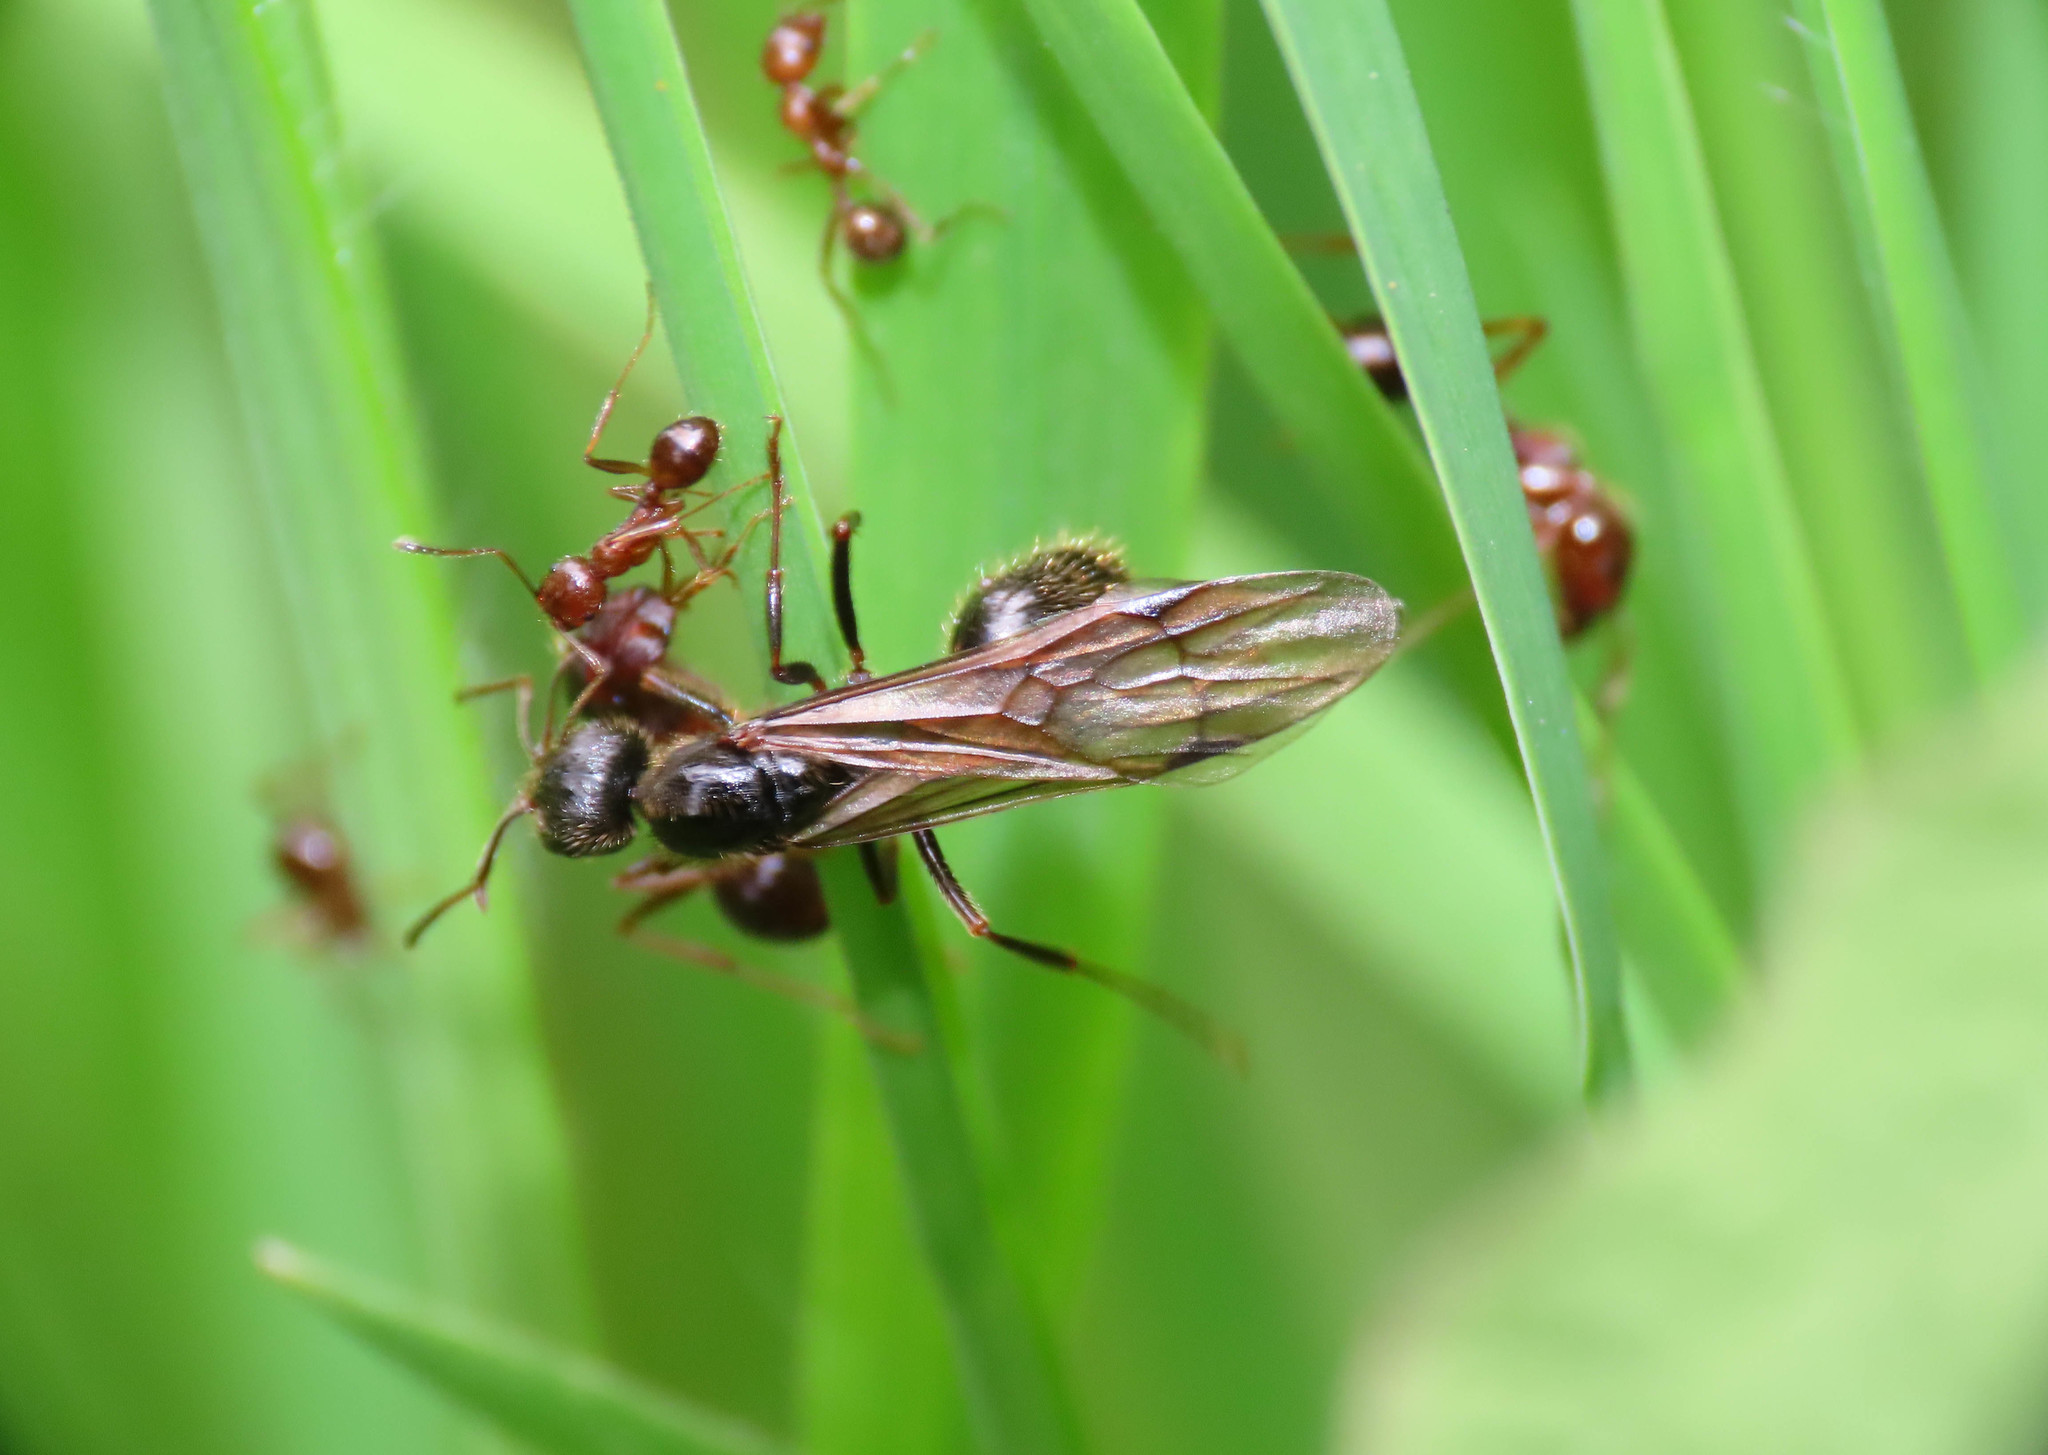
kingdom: Animalia
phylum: Arthropoda
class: Insecta
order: Hymenoptera
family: Formicidae
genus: Messor
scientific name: Messor ibericus
